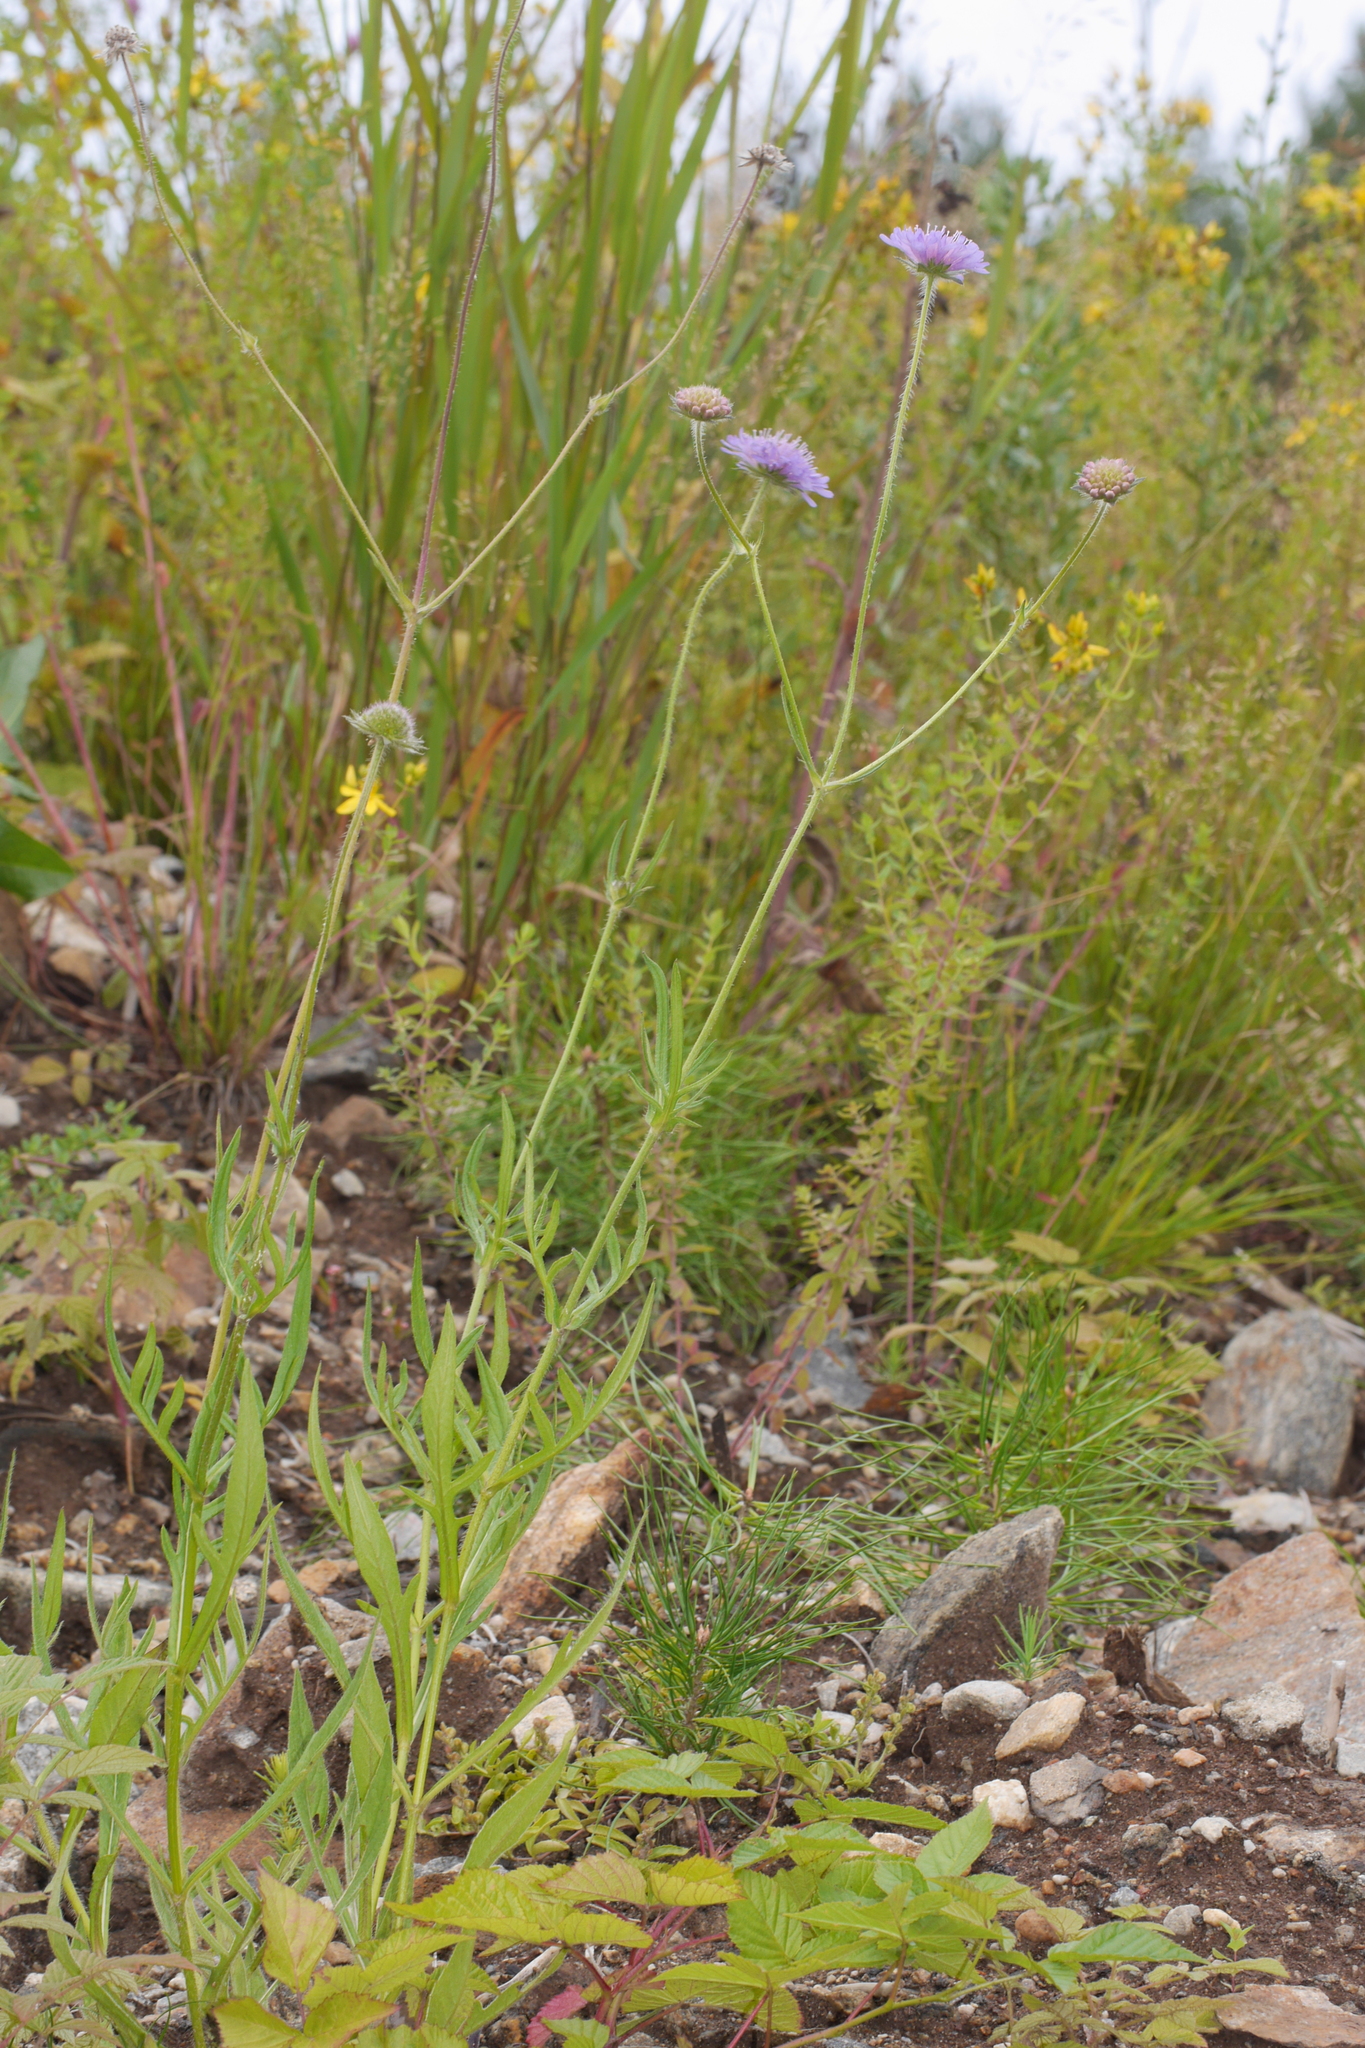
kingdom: Plantae
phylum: Tracheophyta
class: Magnoliopsida
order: Dipsacales
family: Caprifoliaceae
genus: Knautia
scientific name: Knautia arvensis
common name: Field scabiosa
